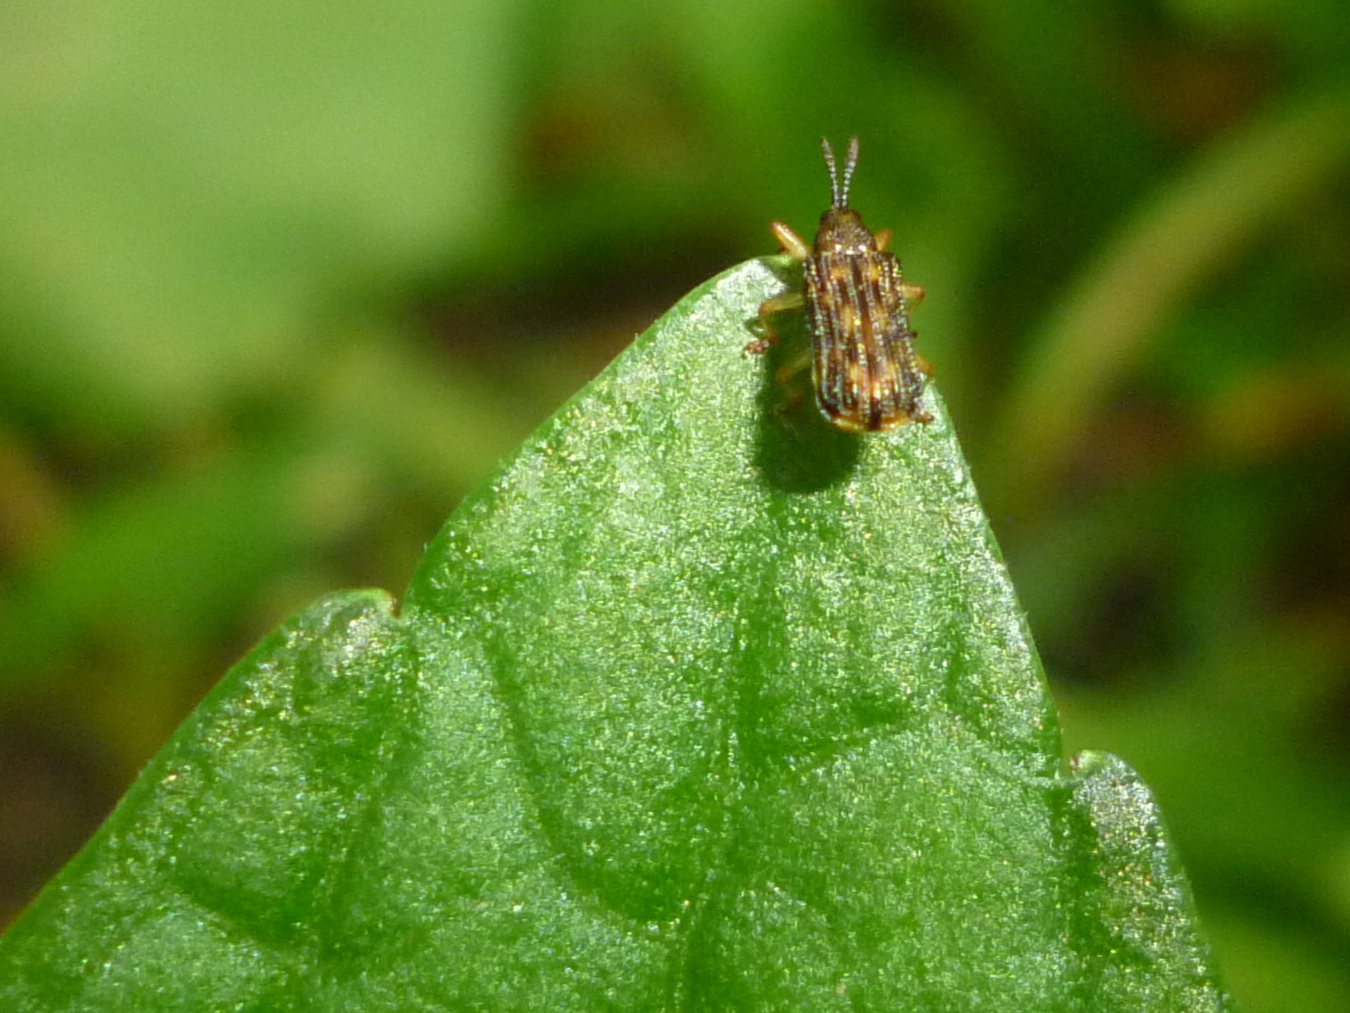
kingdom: Animalia
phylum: Arthropoda
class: Insecta
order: Coleoptera
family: Chrysomelidae
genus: Sumitrosis
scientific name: Sumitrosis inaequalis
